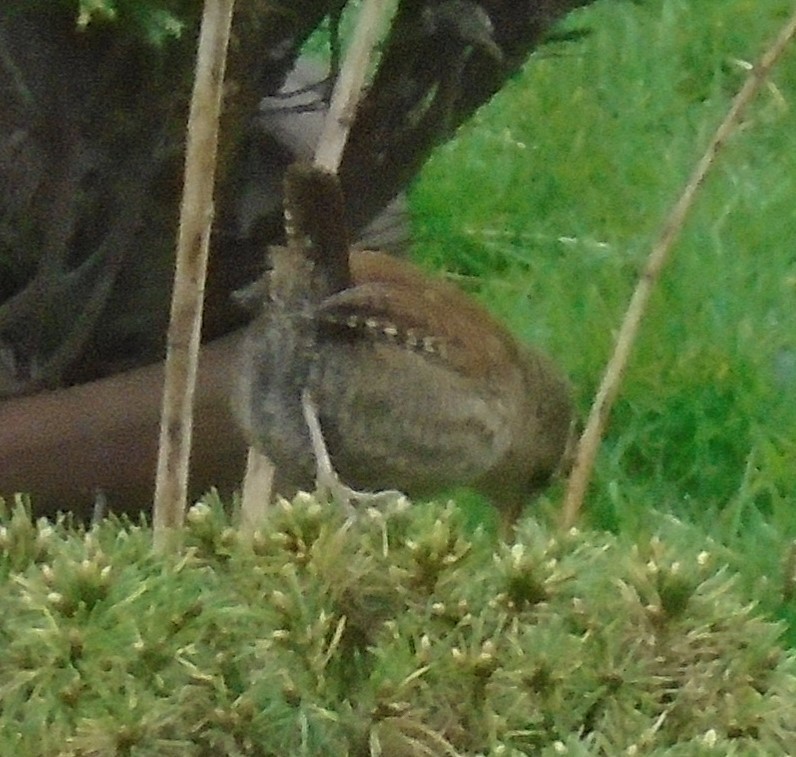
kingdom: Animalia
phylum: Chordata
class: Aves
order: Passeriformes
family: Troglodytidae
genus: Troglodytes
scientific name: Troglodytes troglodytes
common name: Eurasian wren
